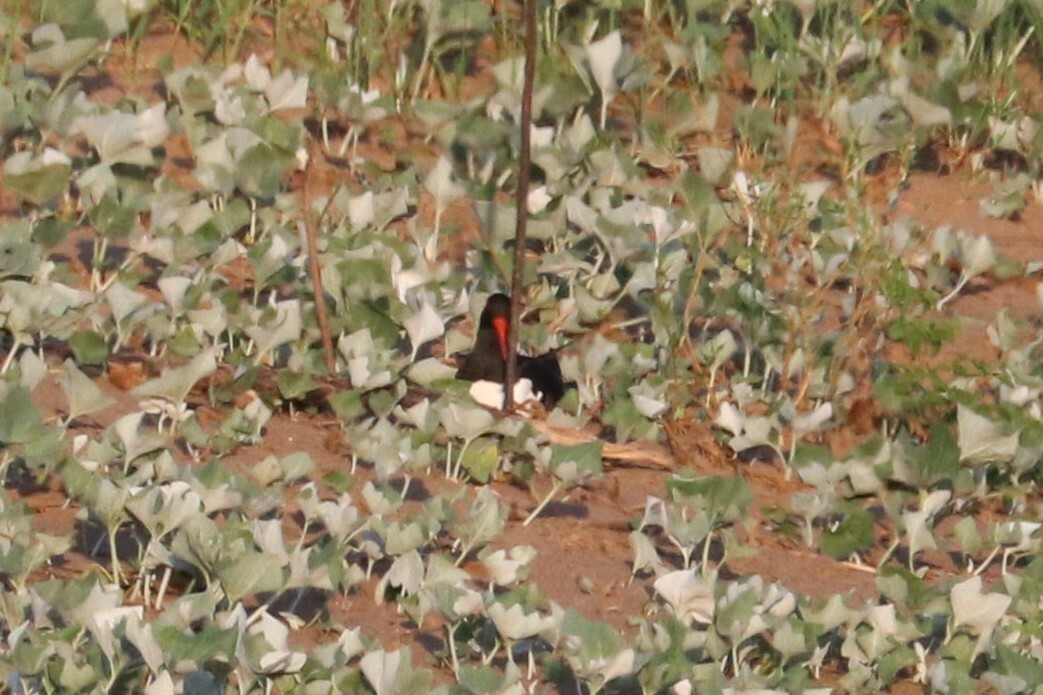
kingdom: Animalia
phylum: Chordata
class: Aves
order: Charadriiformes
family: Haematopodidae
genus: Haematopus
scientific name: Haematopus ostralegus
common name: Eurasian oystercatcher
